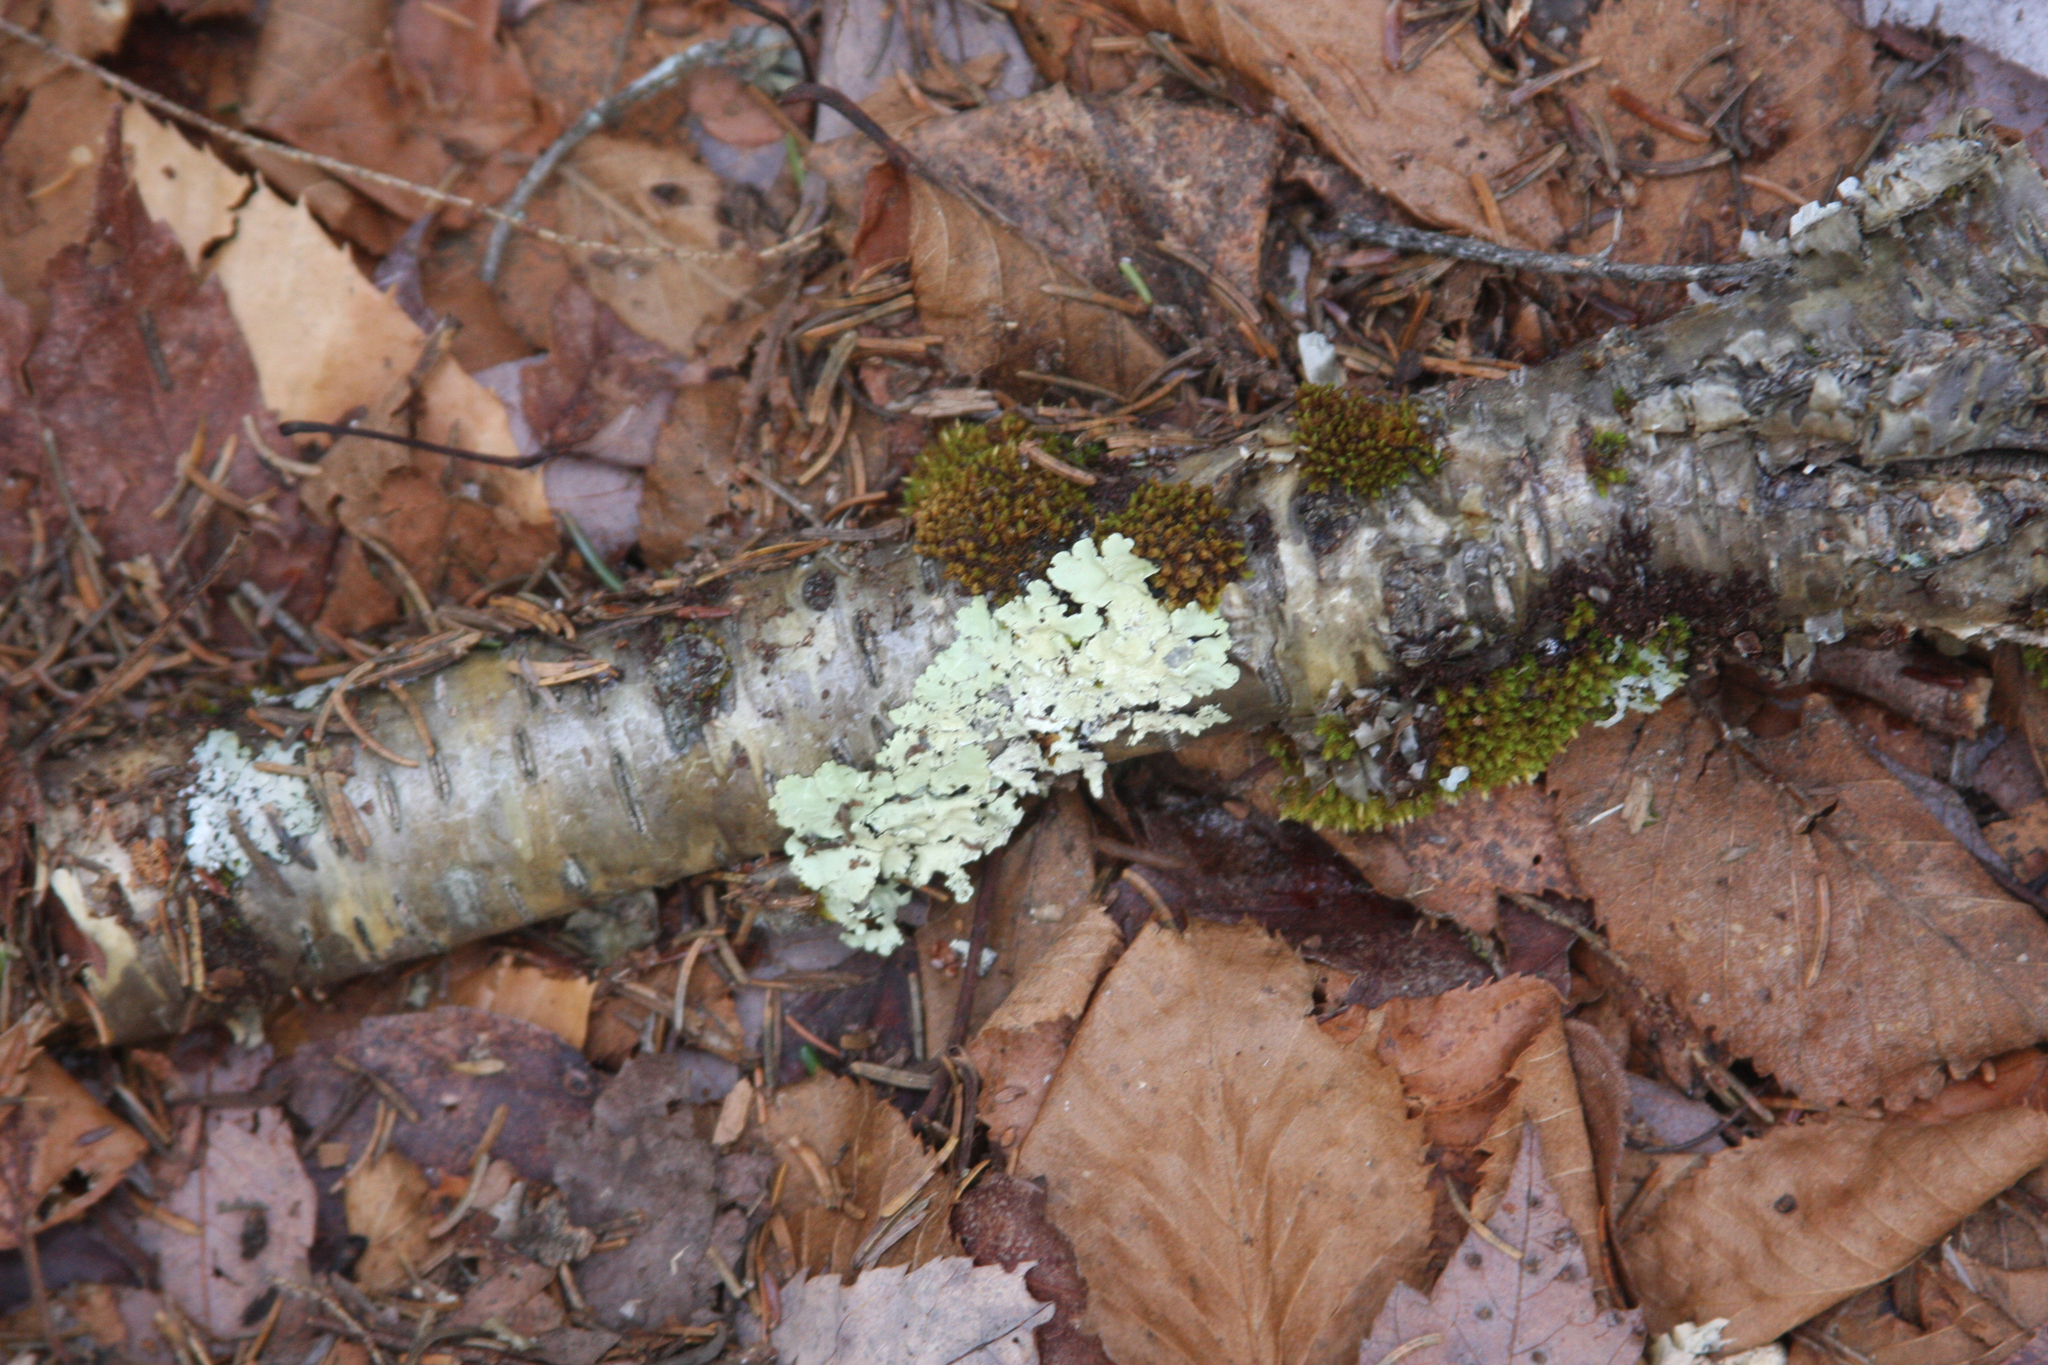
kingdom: Plantae
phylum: Bryophyta
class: Bryopsida
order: Orthotrichales
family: Orthotrichaceae
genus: Ulota
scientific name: Ulota crispa
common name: Crisped pincushion moss
